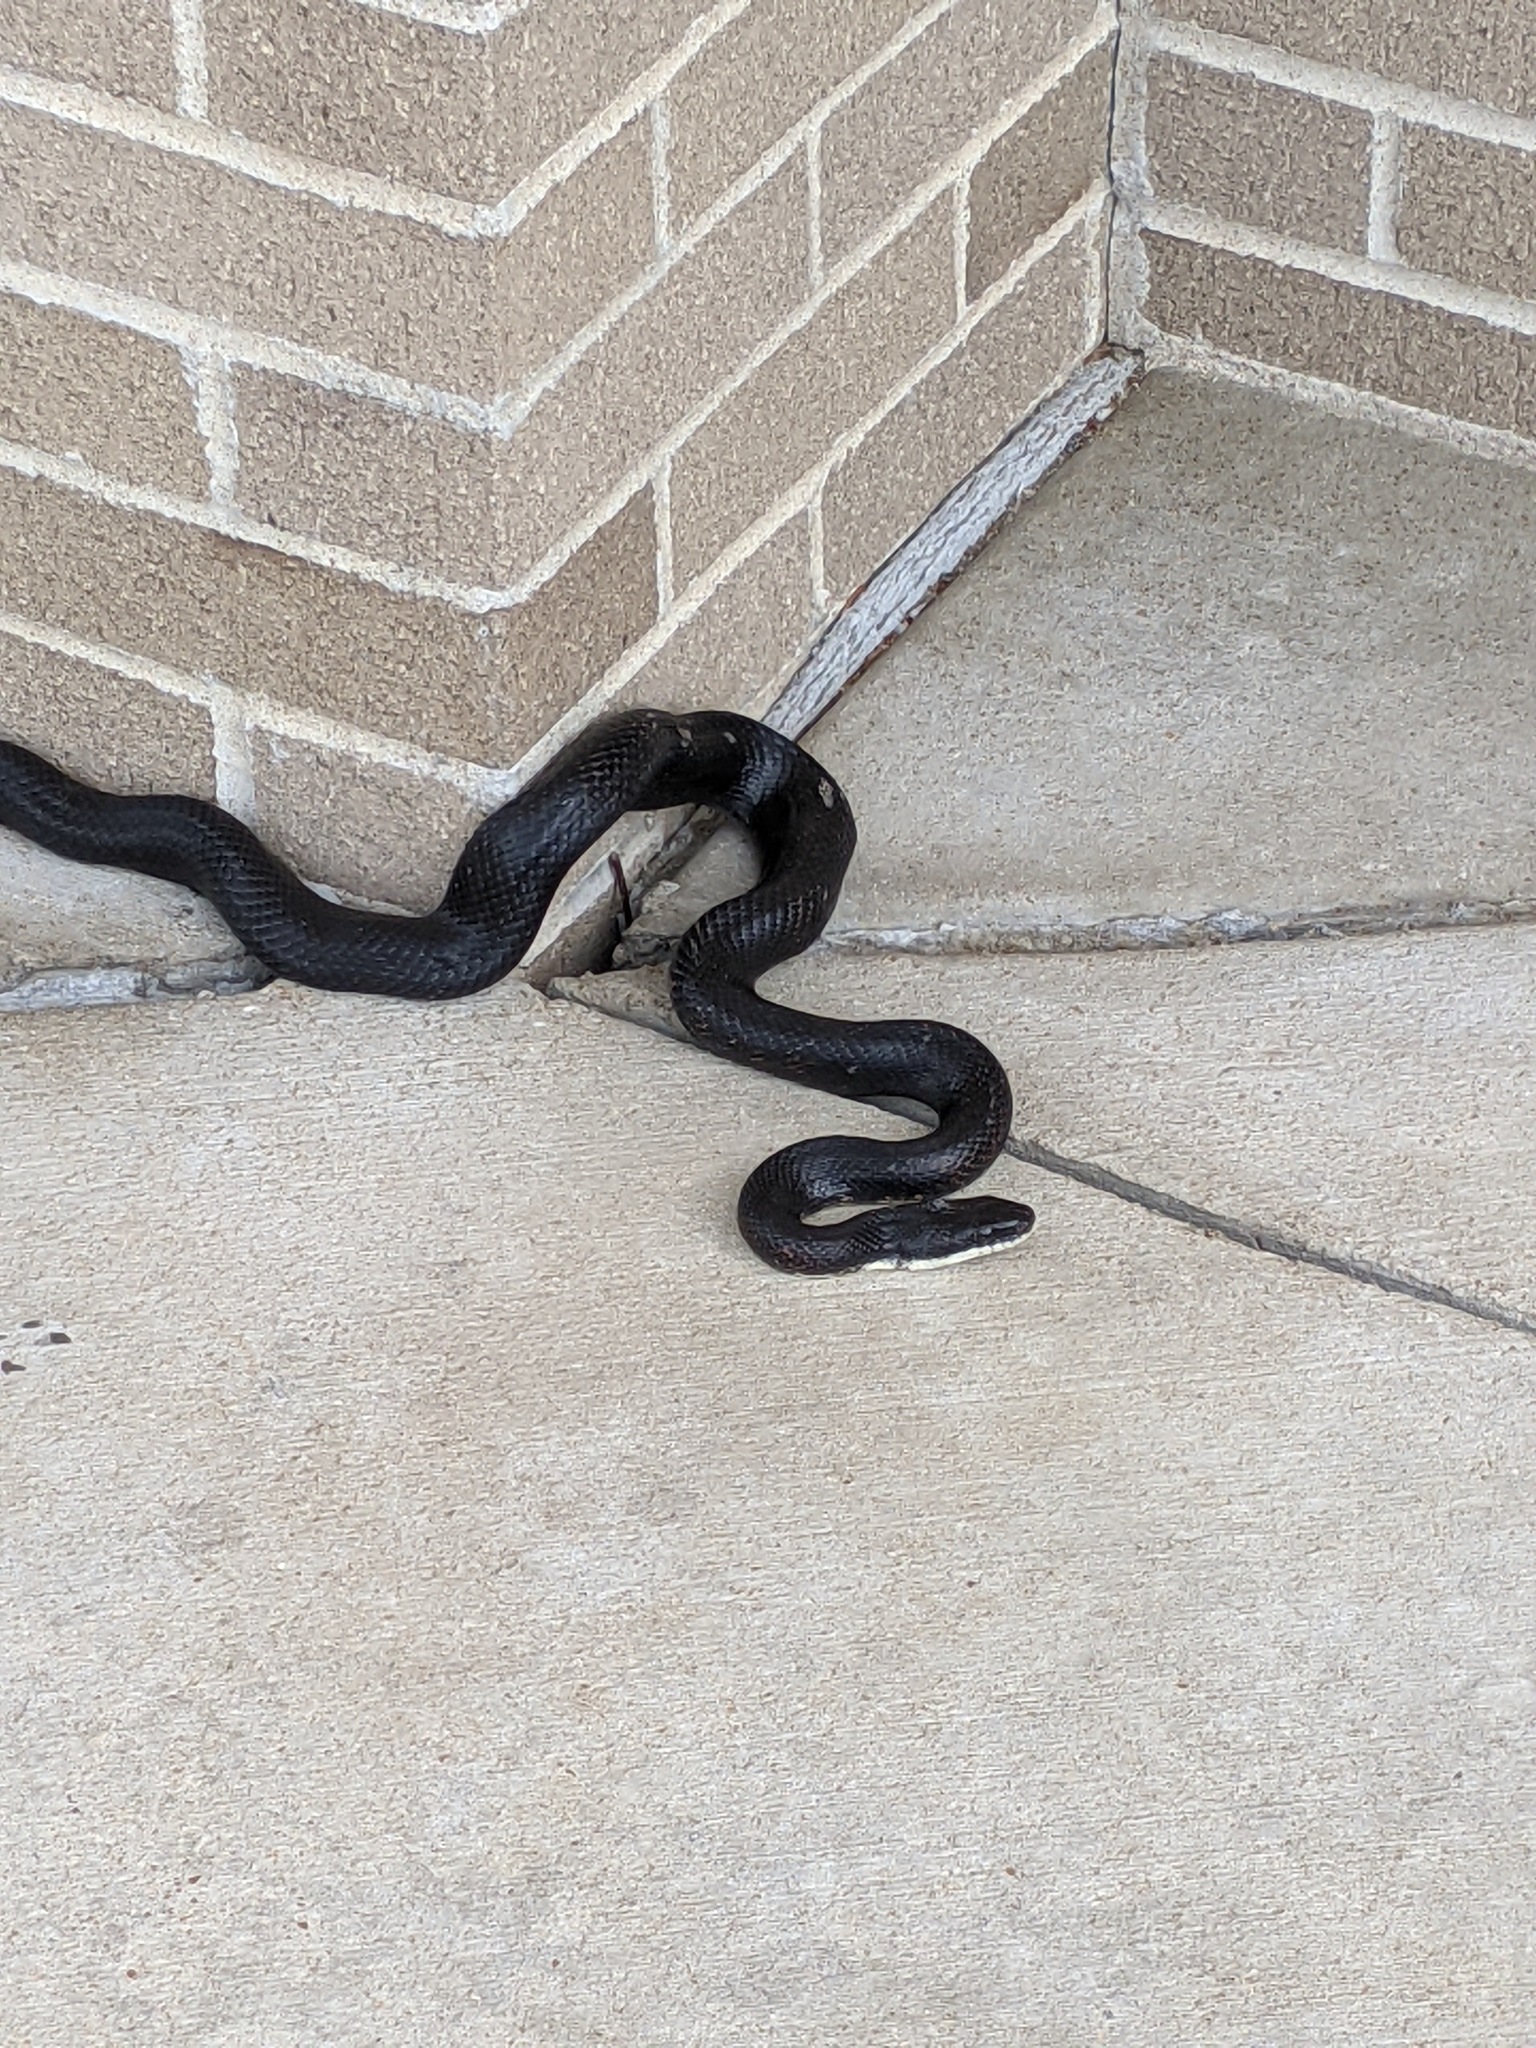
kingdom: Animalia
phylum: Chordata
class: Squamata
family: Colubridae
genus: Pantherophis
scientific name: Pantherophis obsoletus
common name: Black rat snake
